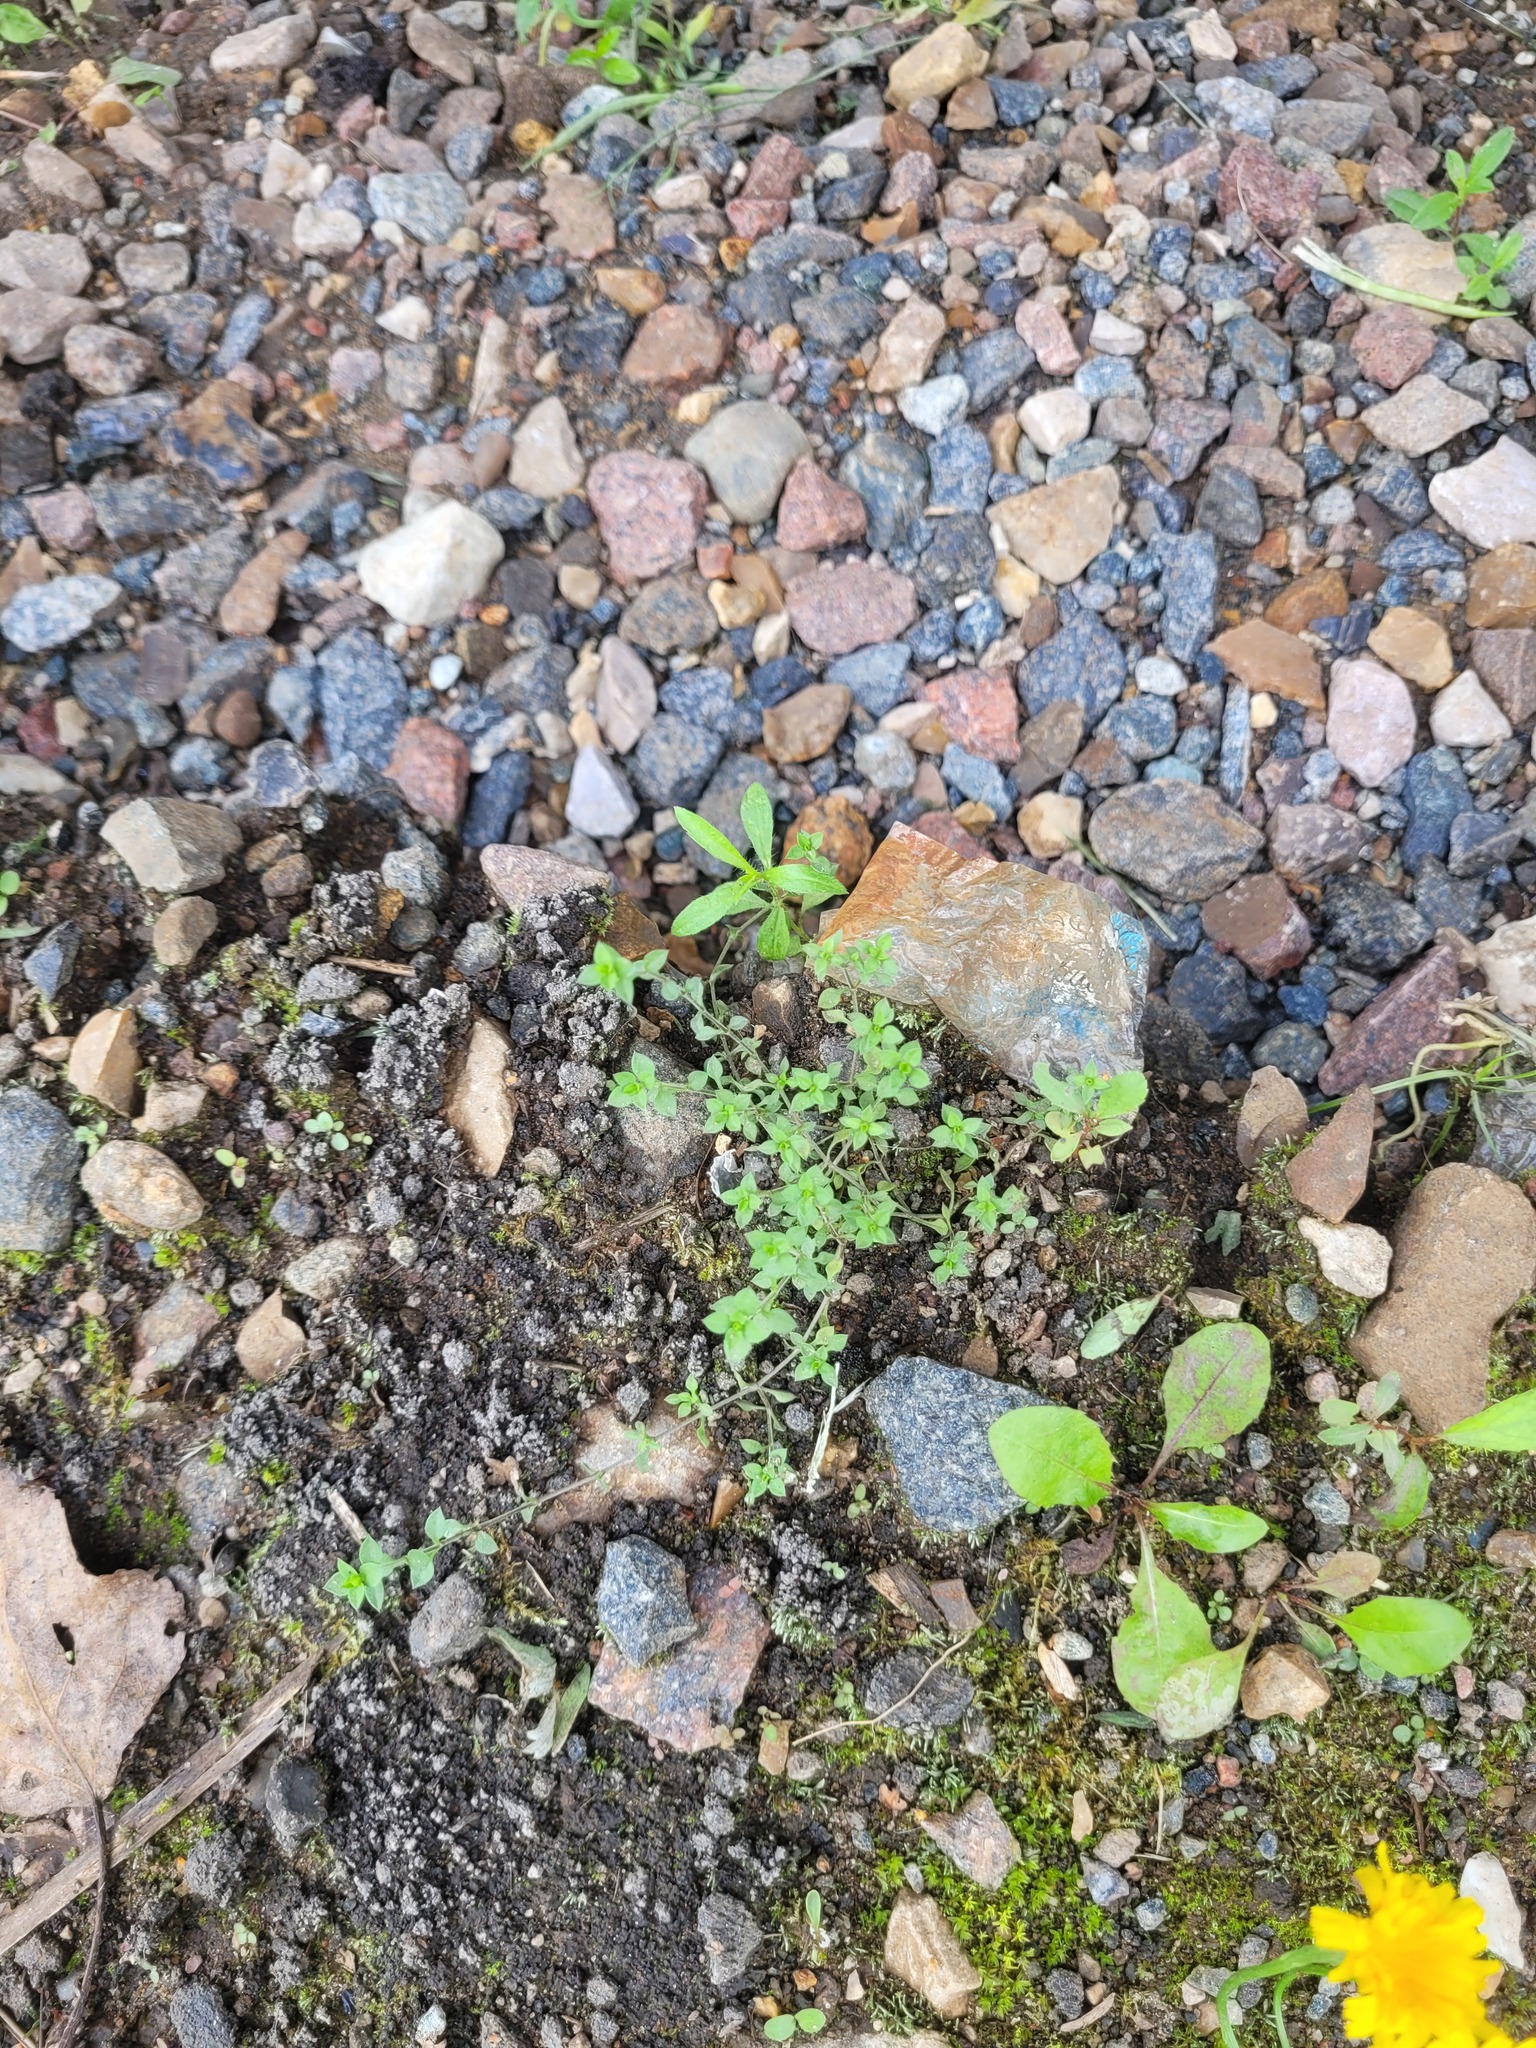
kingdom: Plantae
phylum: Tracheophyta
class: Magnoliopsida
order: Caryophyllales
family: Caryophyllaceae
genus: Arenaria
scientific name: Arenaria serpyllifolia
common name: Thyme-leaved sandwort
